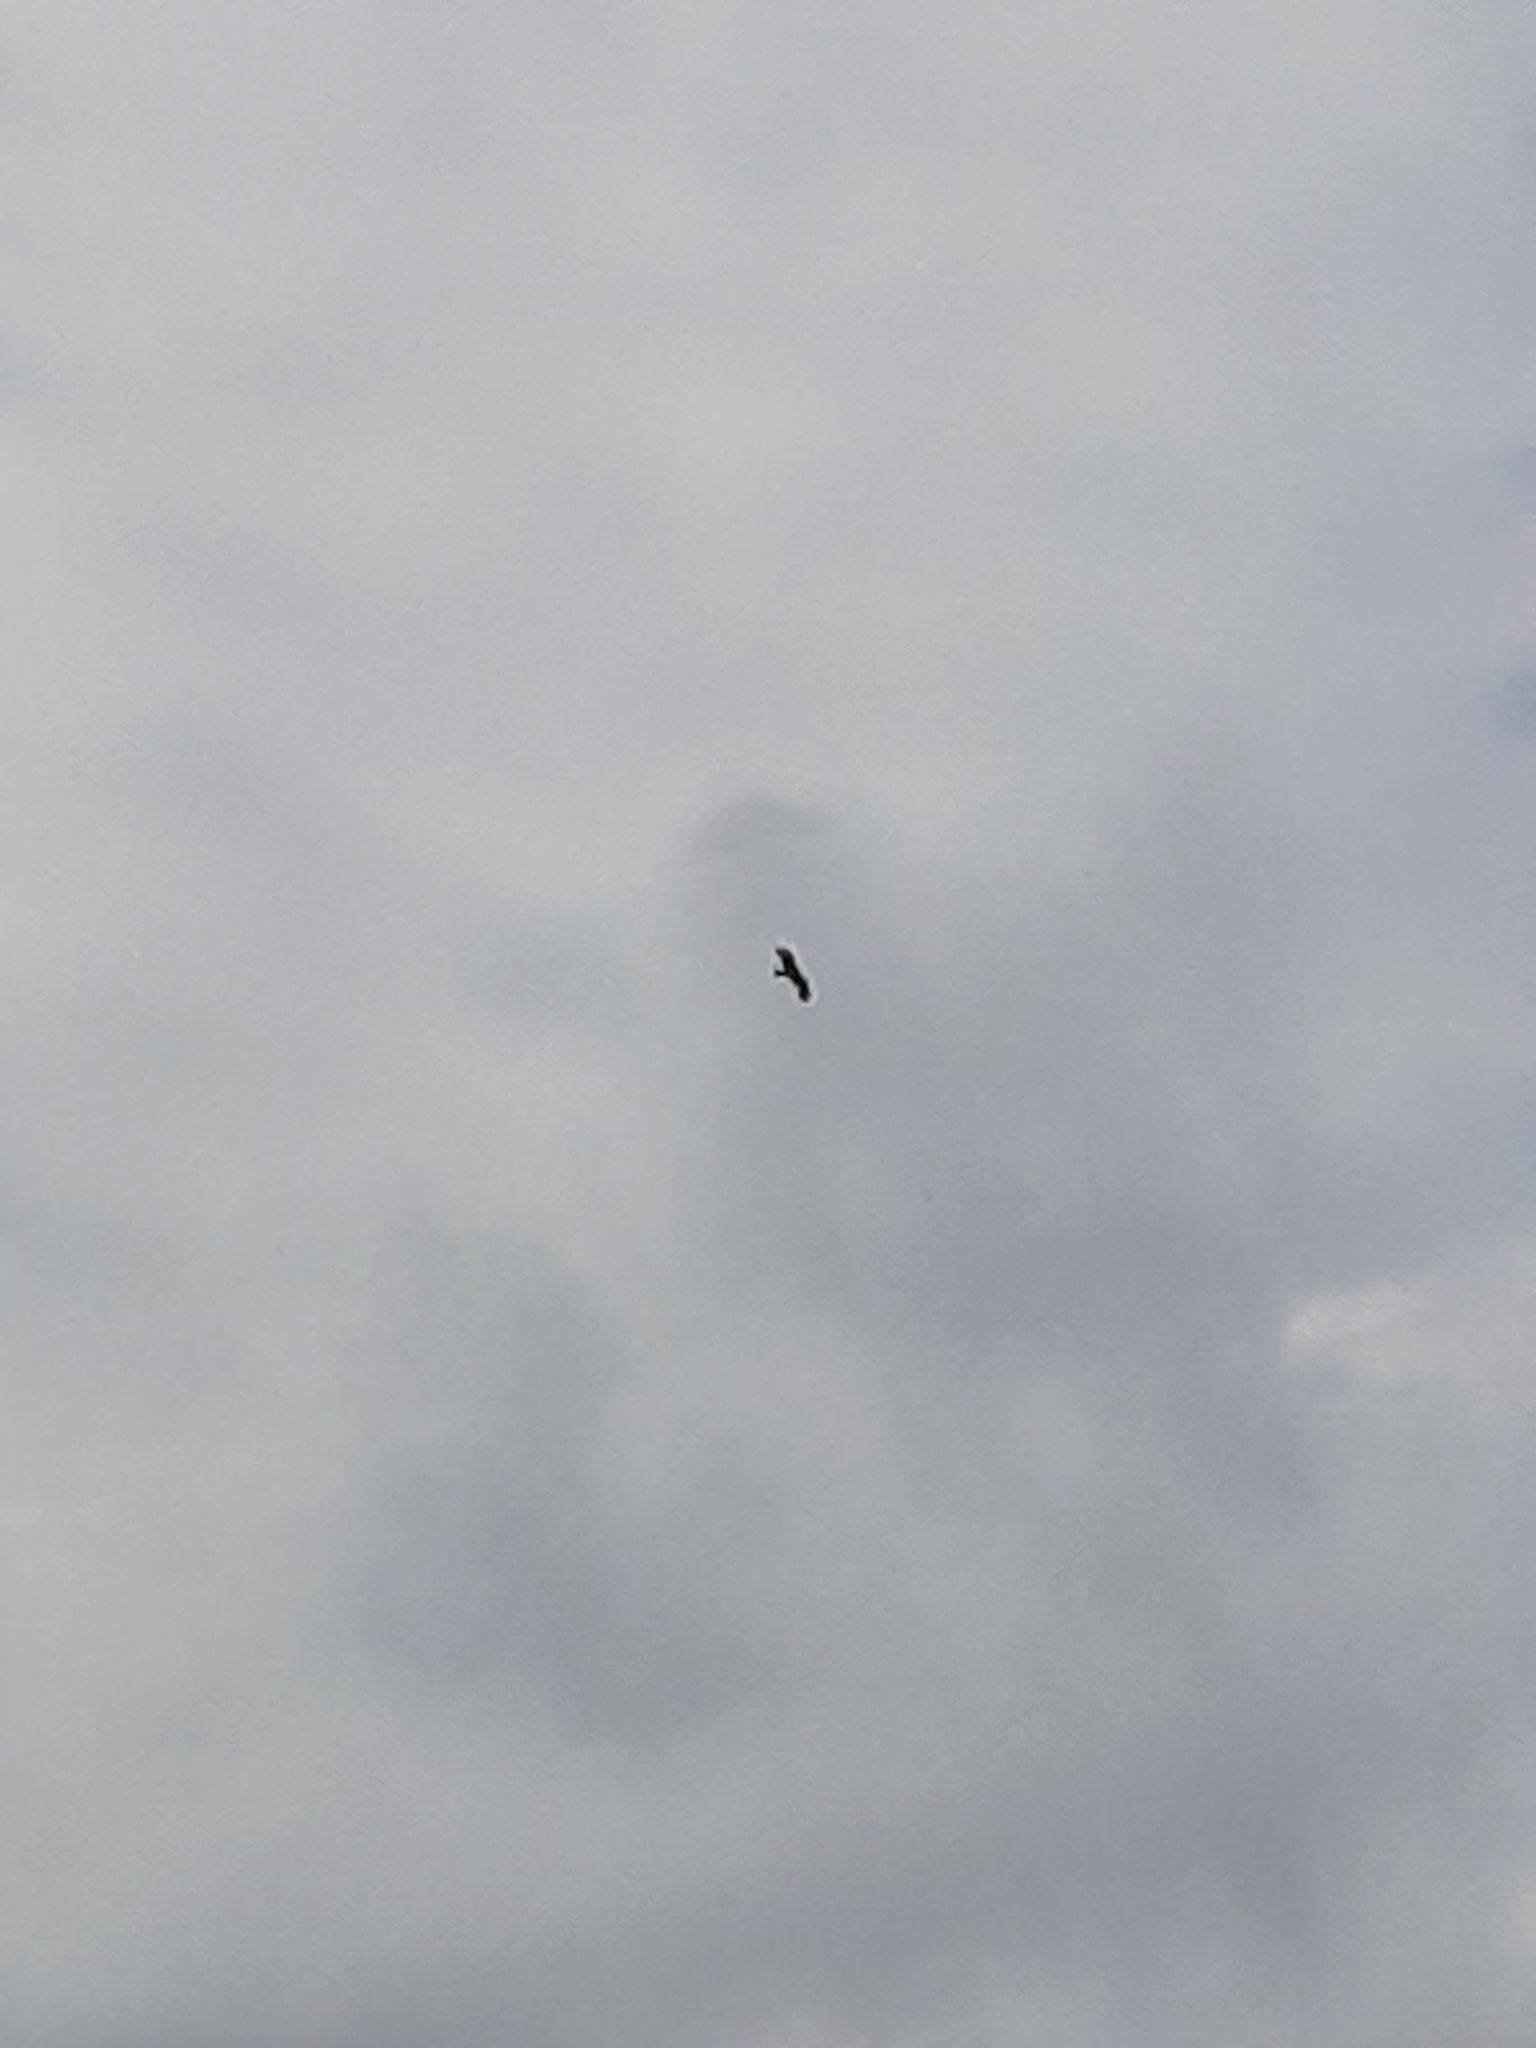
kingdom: Animalia
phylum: Chordata
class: Aves
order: Accipitriformes
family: Accipitridae
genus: Milvus
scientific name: Milvus migrans
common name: Black kite
